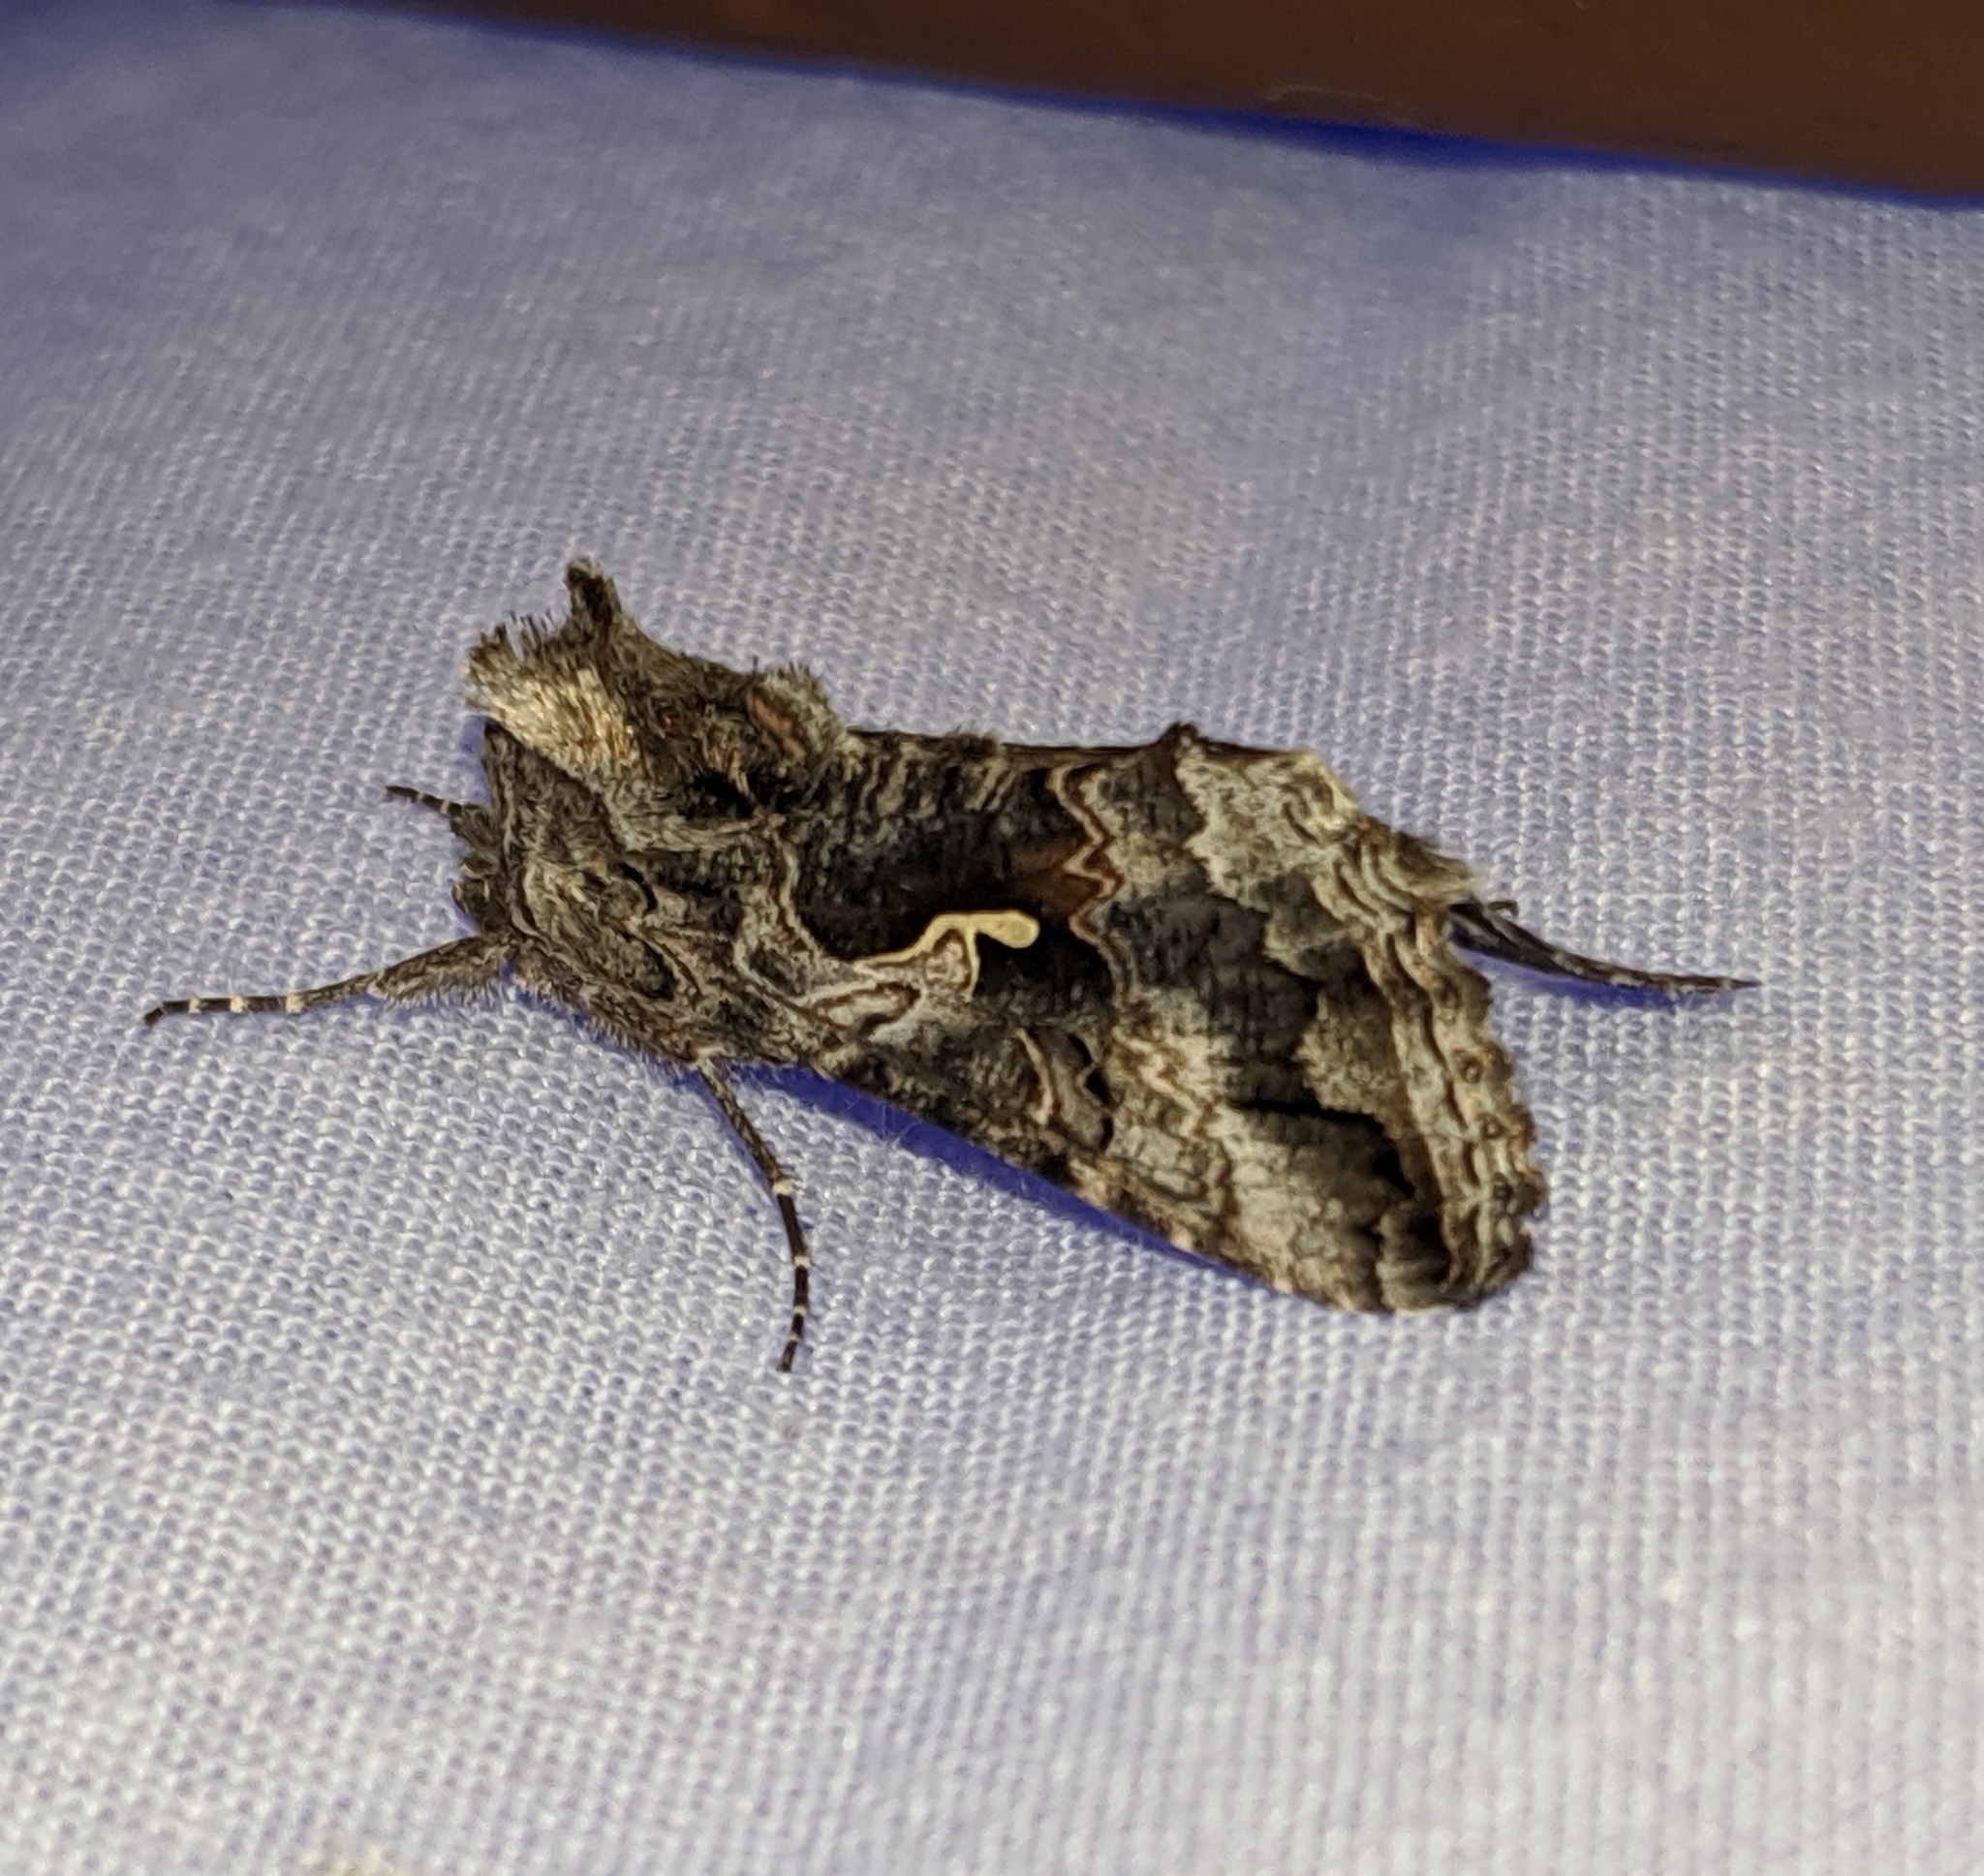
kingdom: Animalia
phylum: Arthropoda
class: Insecta
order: Lepidoptera
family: Noctuidae
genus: Autographa
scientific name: Autographa californica
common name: Alfalfa looper
